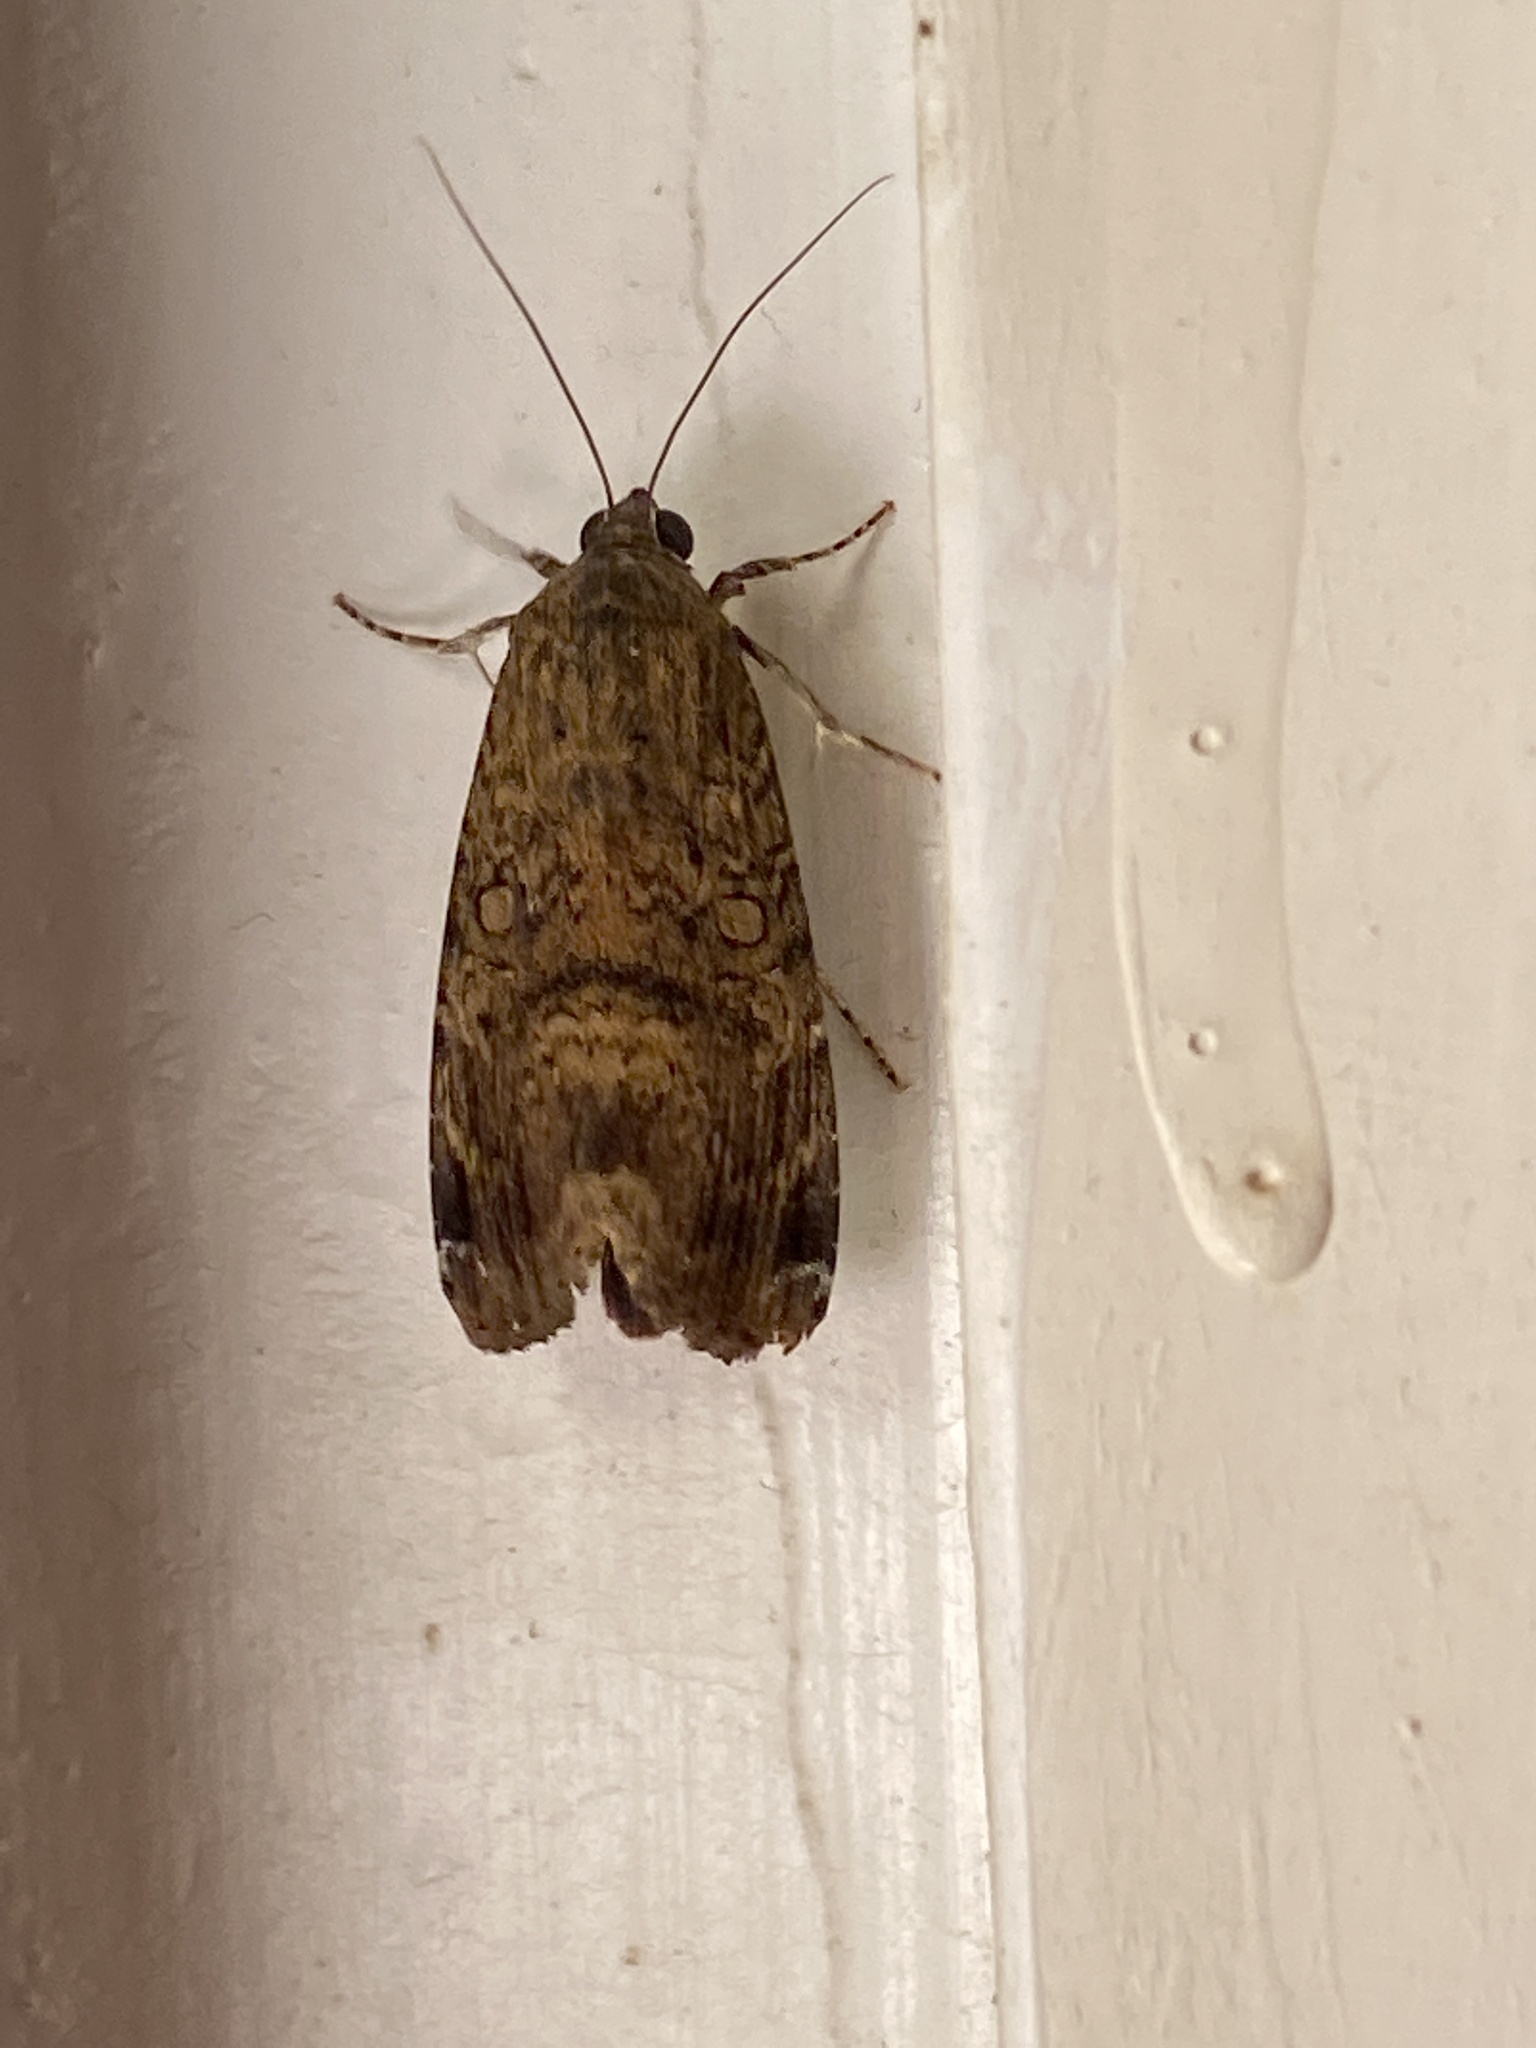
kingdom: Animalia
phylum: Arthropoda
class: Insecta
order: Lepidoptera
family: Noctuidae
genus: Magusa
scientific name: Magusa divaricata
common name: Orb narrow-winged moth
